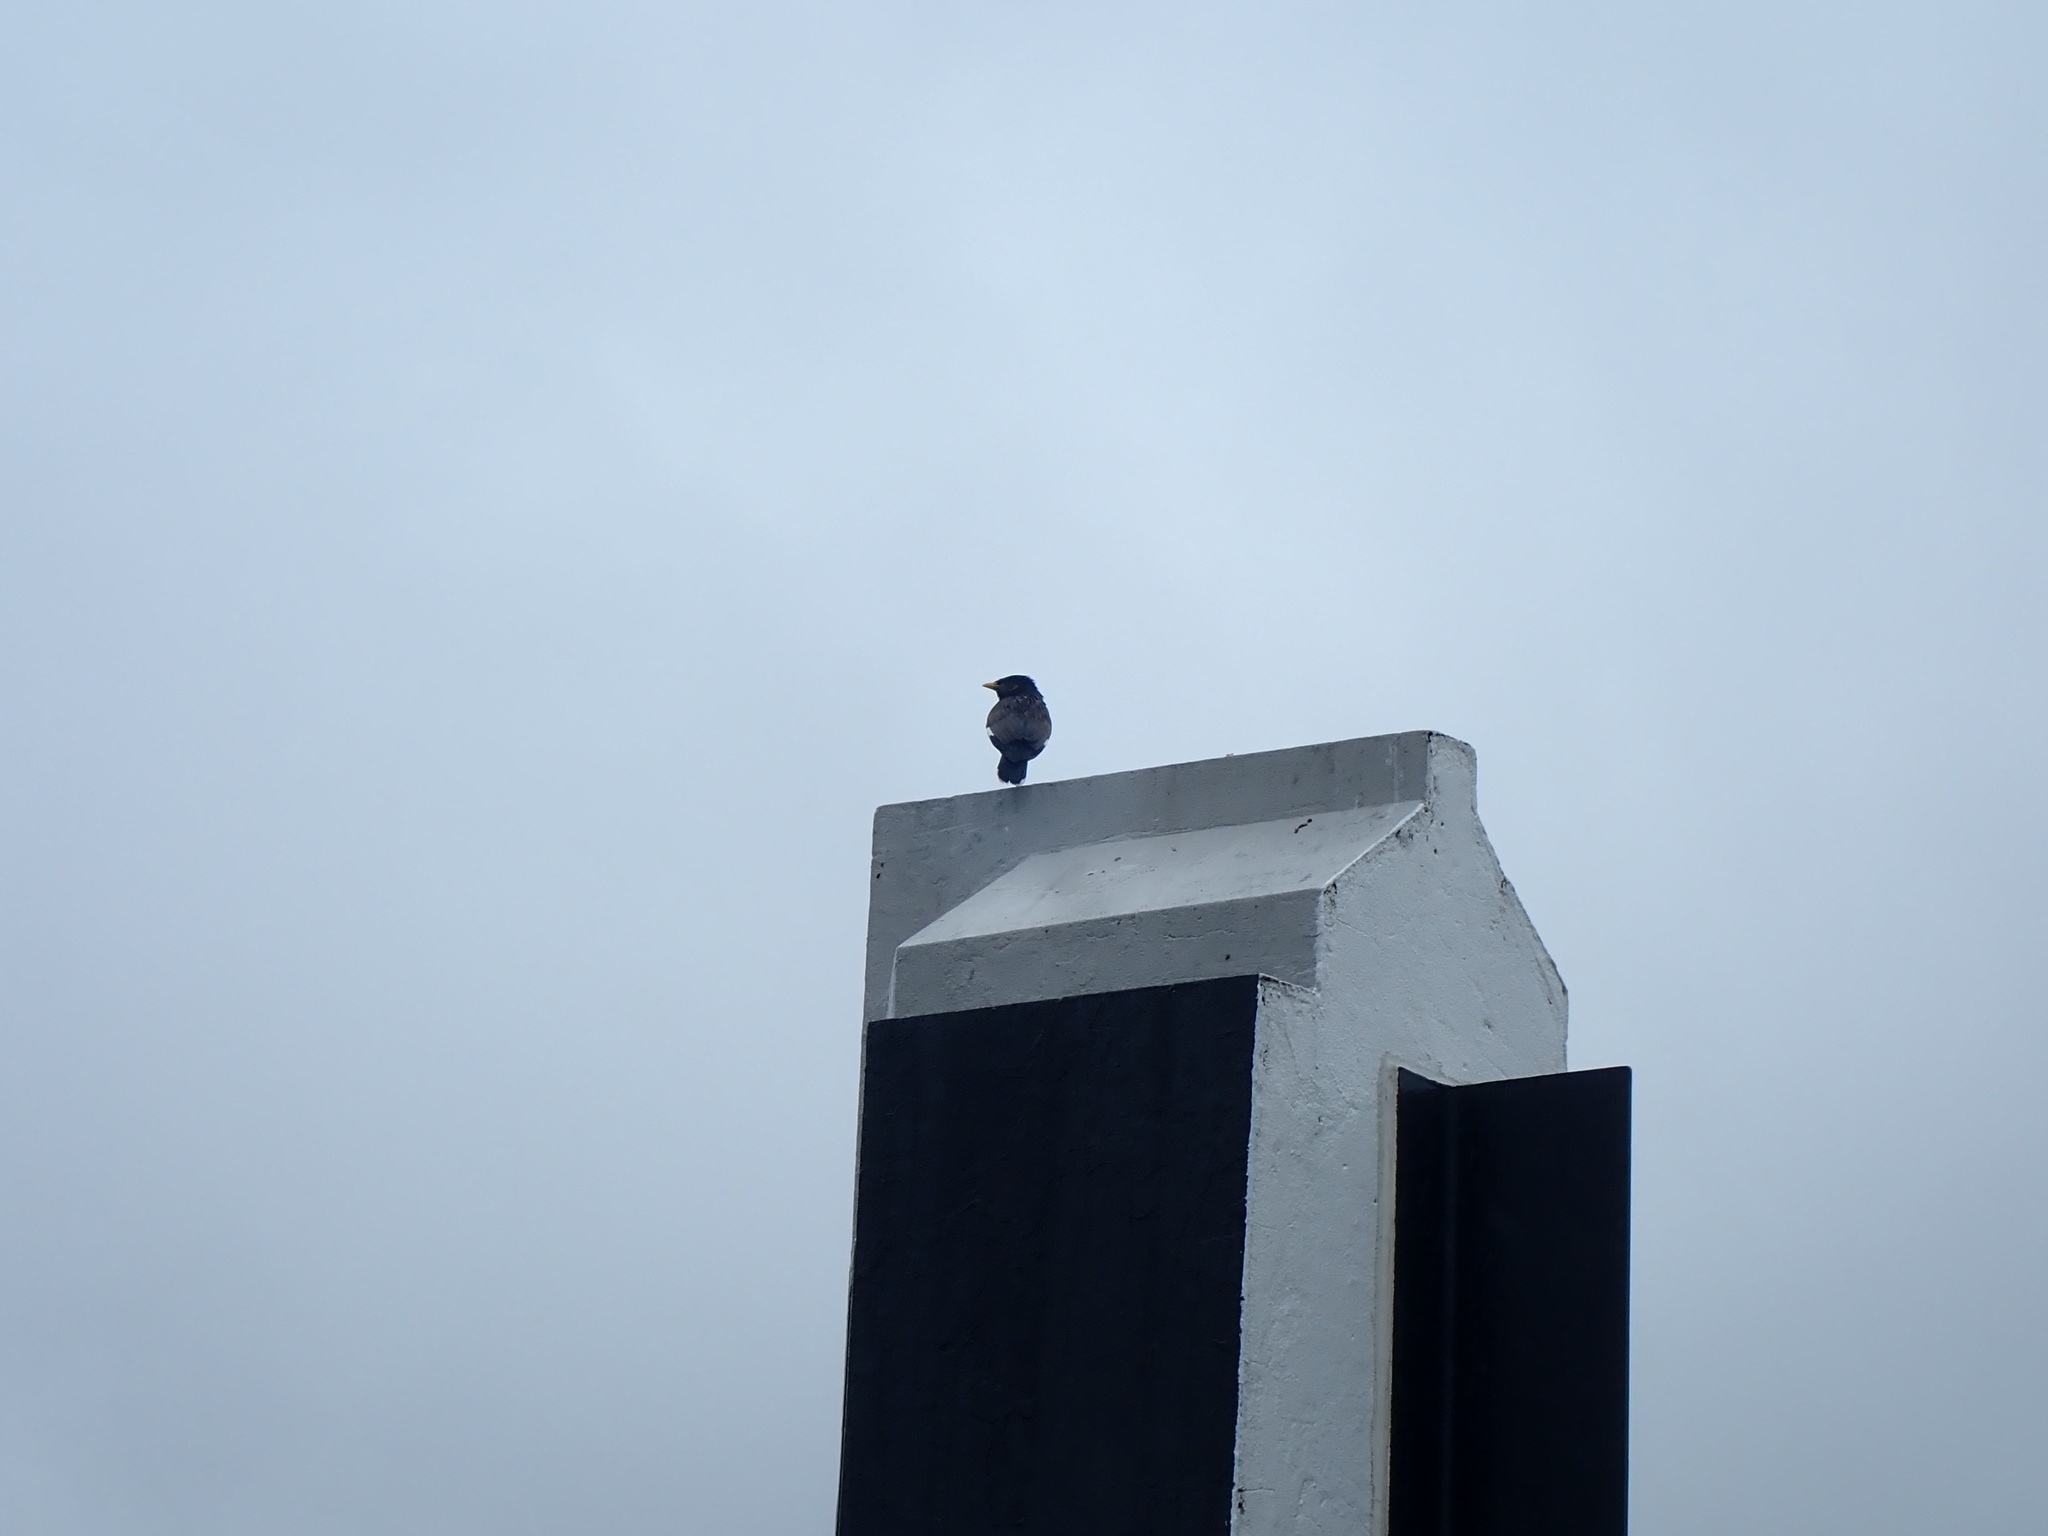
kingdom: Animalia
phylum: Chordata
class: Aves
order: Passeriformes
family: Sturnidae
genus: Acridotheres
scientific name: Acridotheres tristis
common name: Common myna
